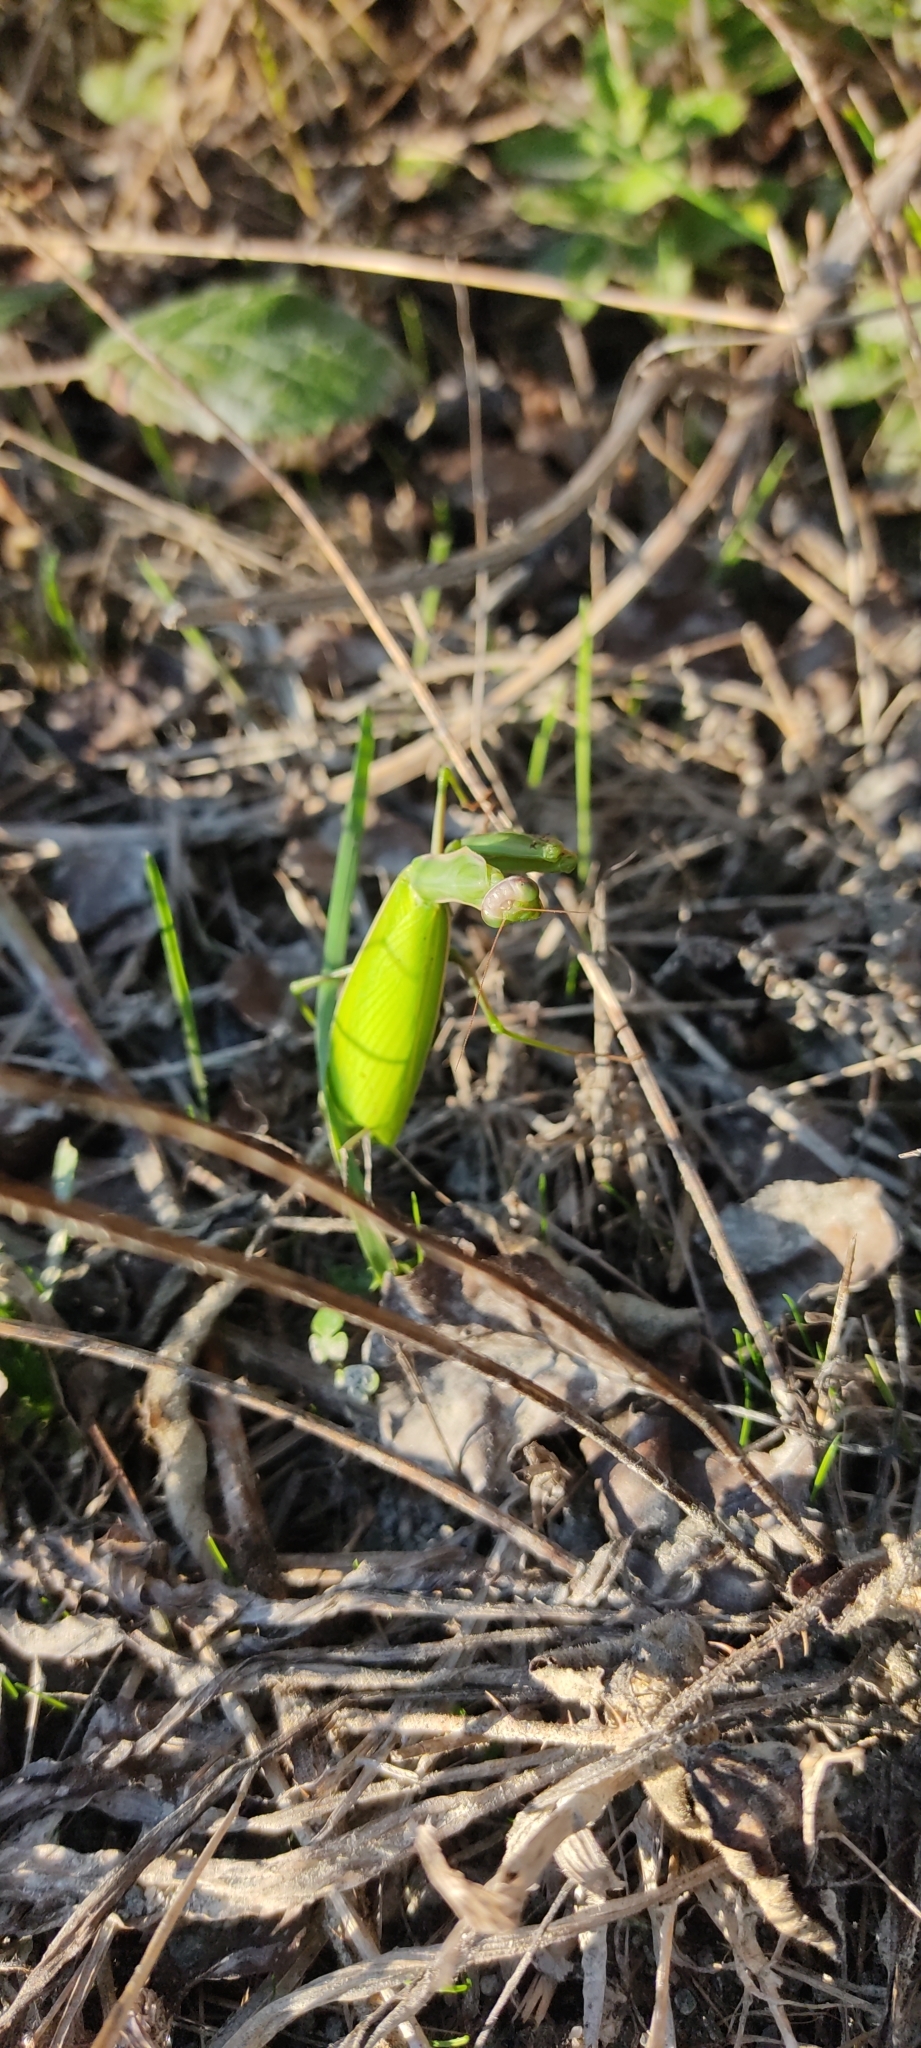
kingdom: Animalia
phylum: Arthropoda
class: Insecta
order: Mantodea
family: Mantidae
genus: Mantis
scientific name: Mantis religiosa
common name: Praying mantis
